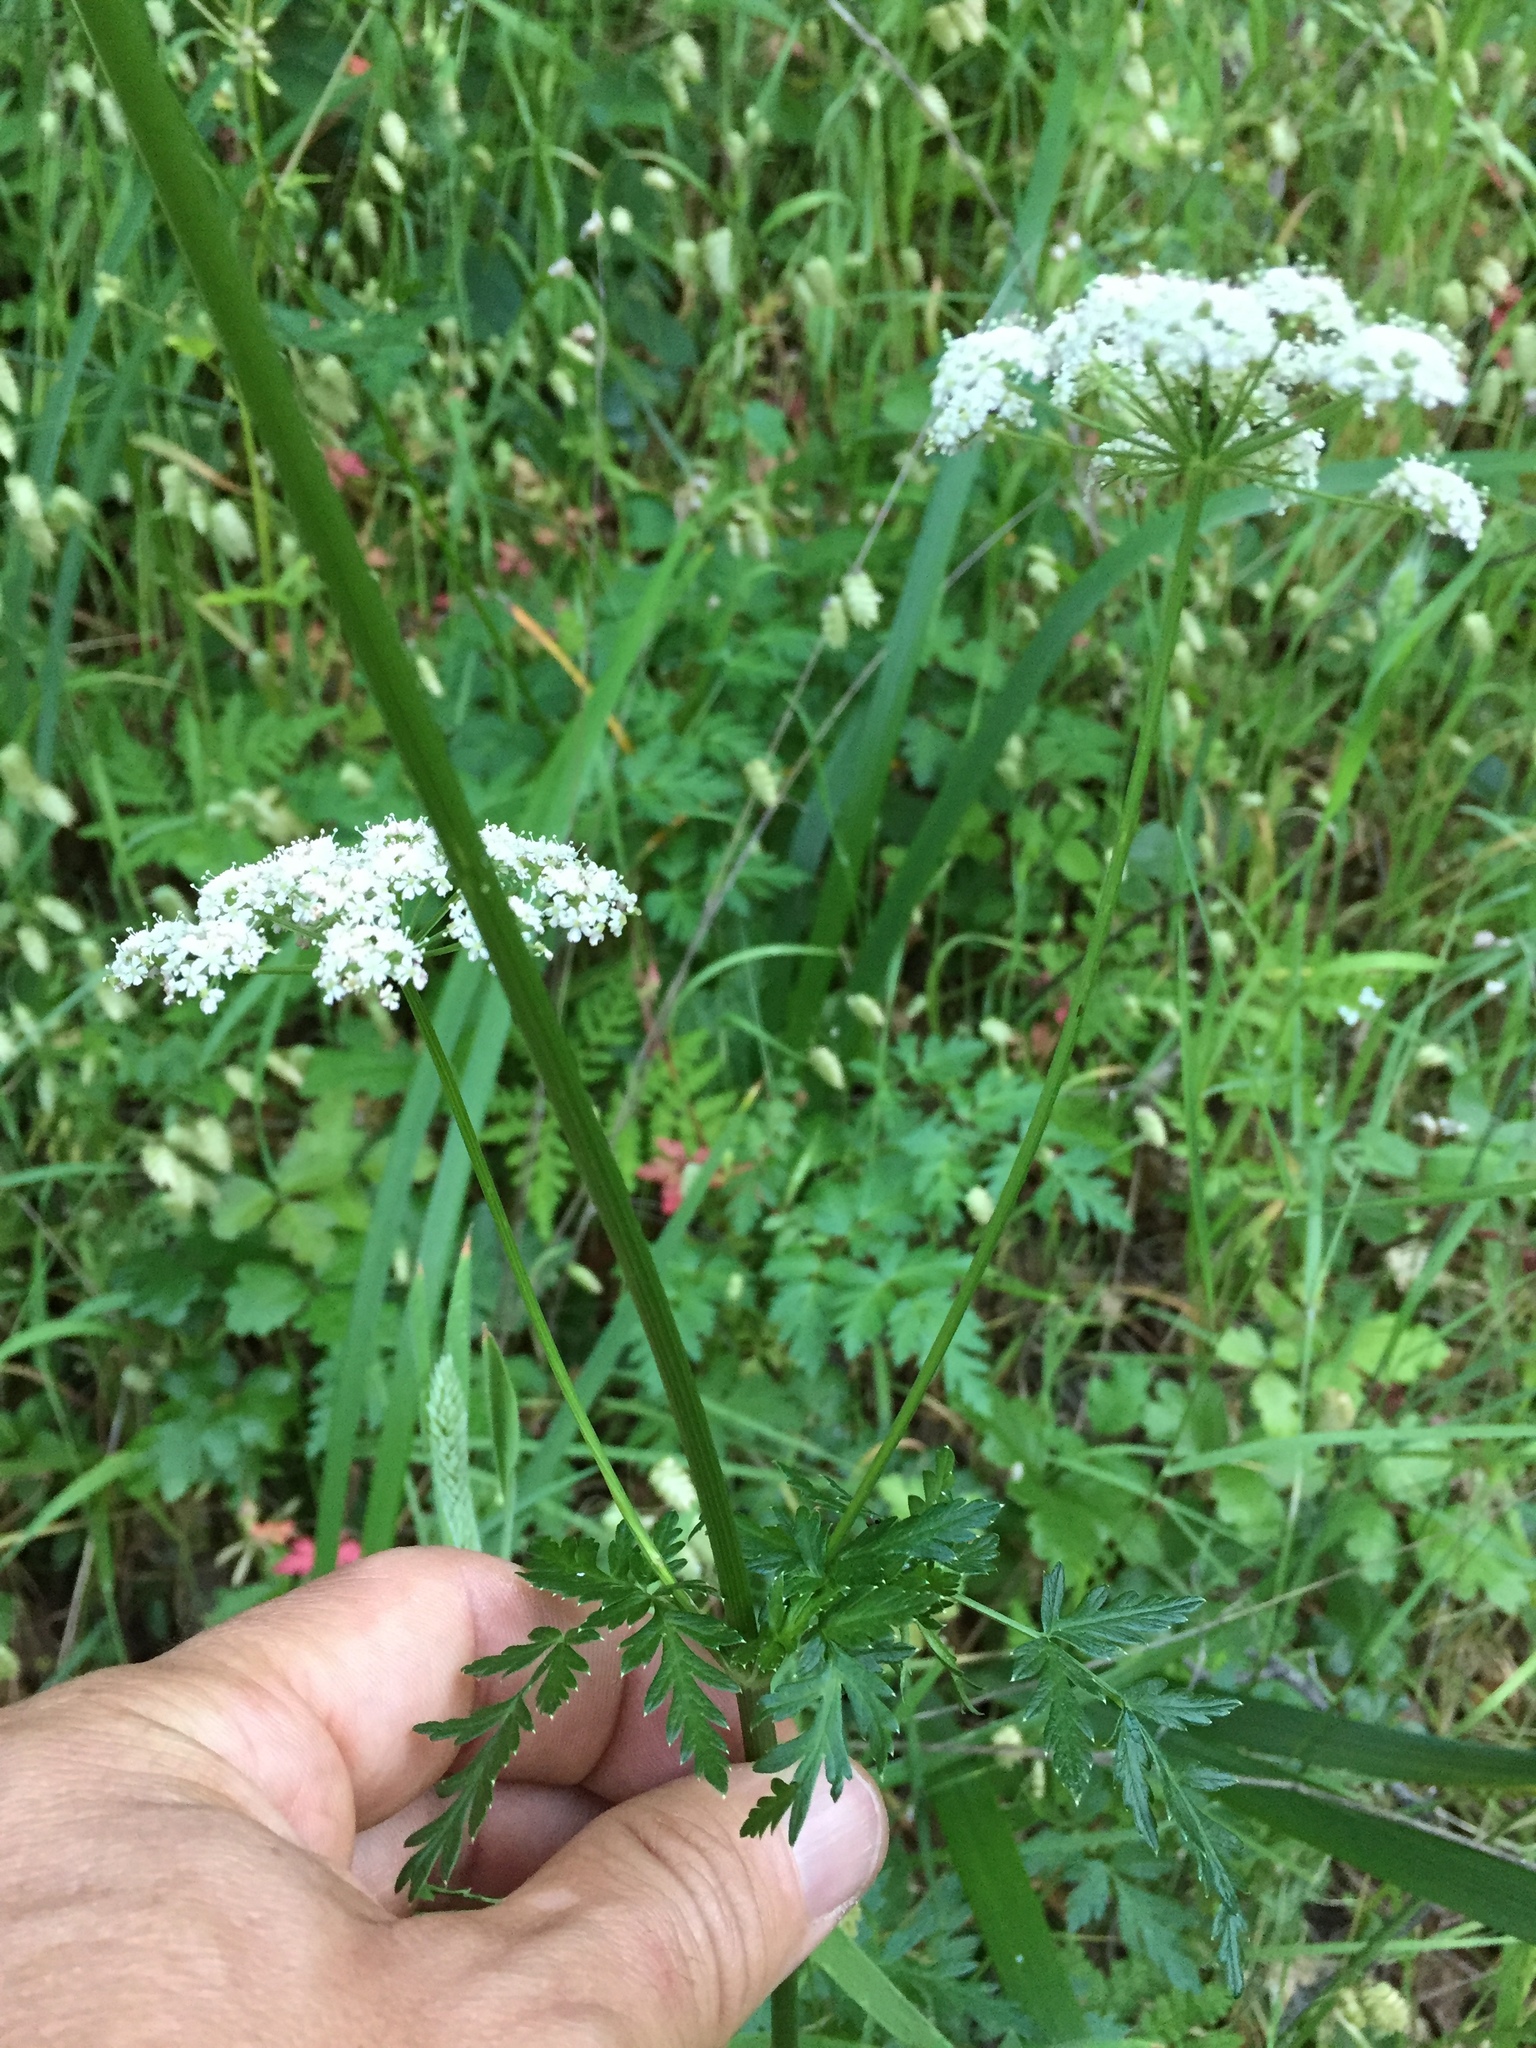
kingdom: Plantae
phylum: Tracheophyta
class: Magnoliopsida
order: Apiales
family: Apiaceae
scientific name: Apiaceae
